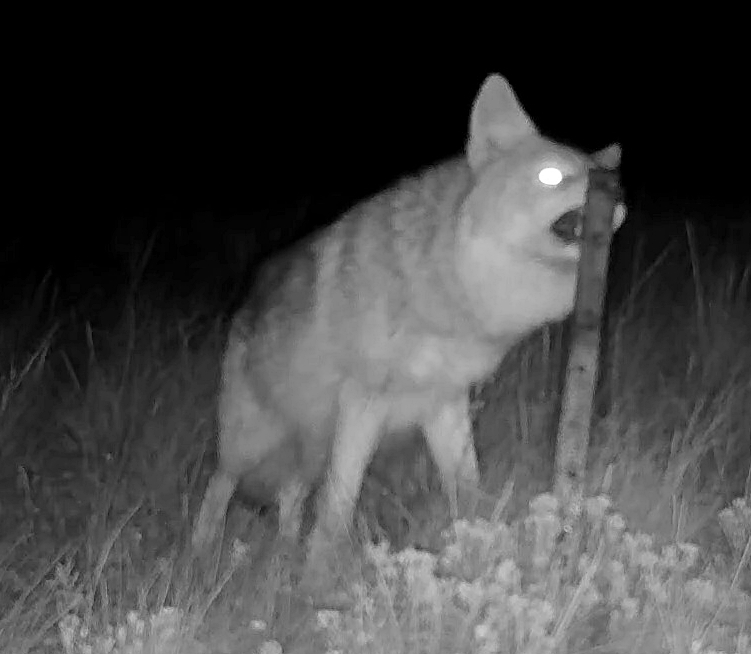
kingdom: Animalia
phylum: Chordata
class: Mammalia
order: Carnivora
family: Canidae
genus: Canis
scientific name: Canis latrans
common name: Coyote
